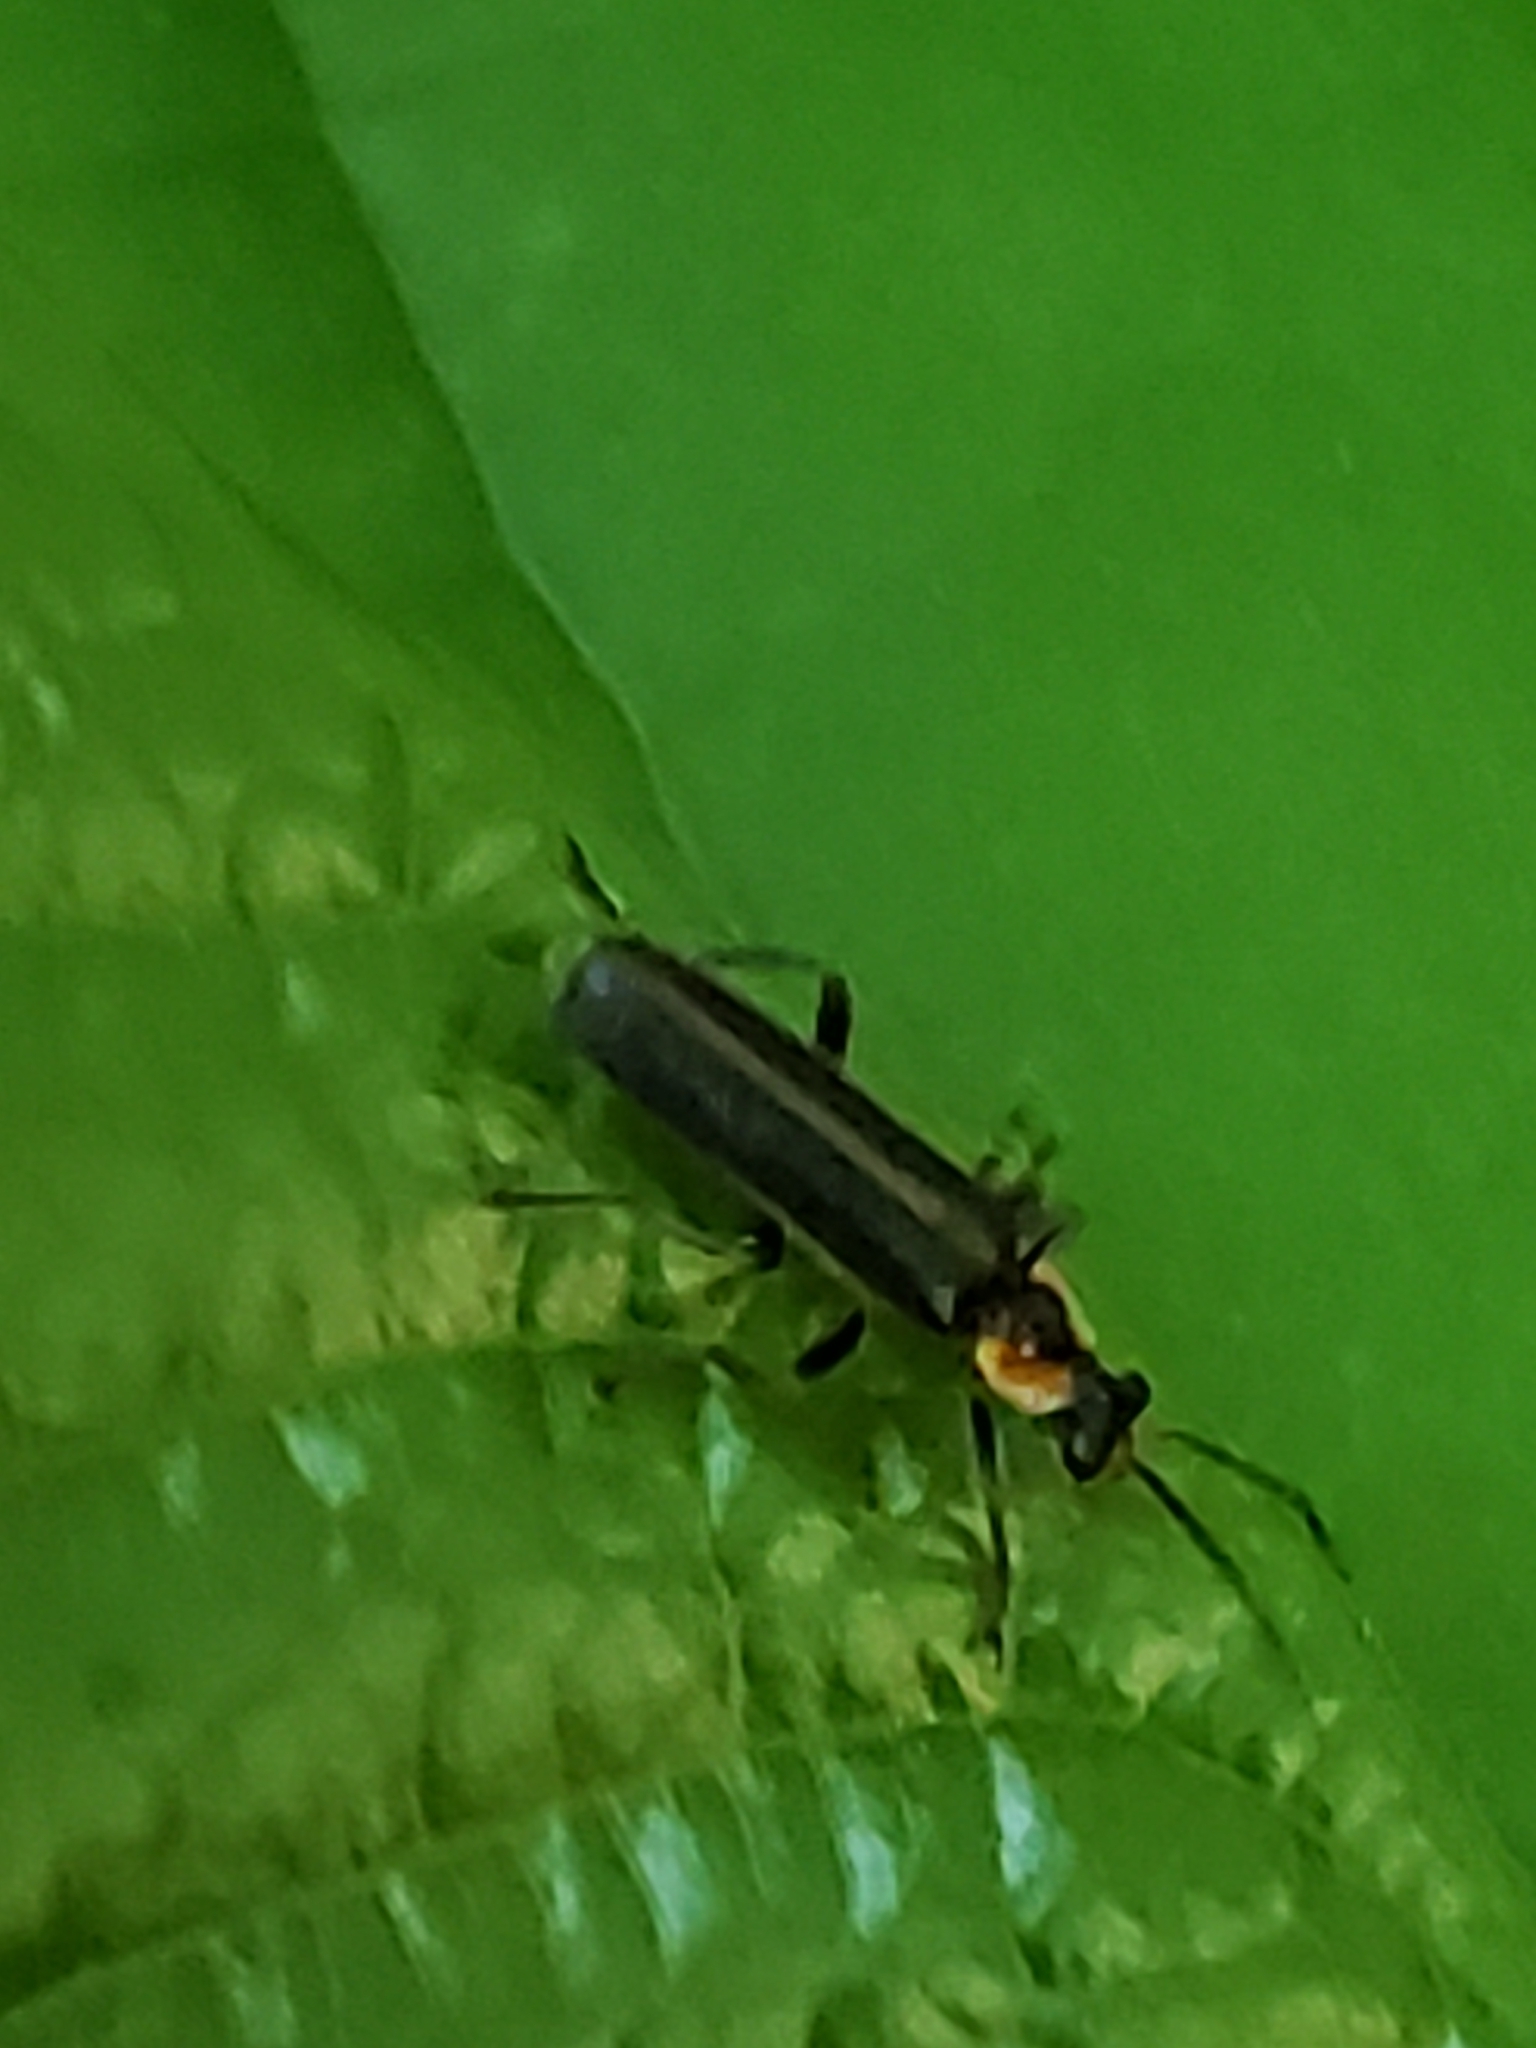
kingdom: Animalia
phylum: Arthropoda
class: Insecta
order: Coleoptera
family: Cantharidae
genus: Podabrus
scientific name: Podabrus rugosulus
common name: Wrinkled soldier beetle
